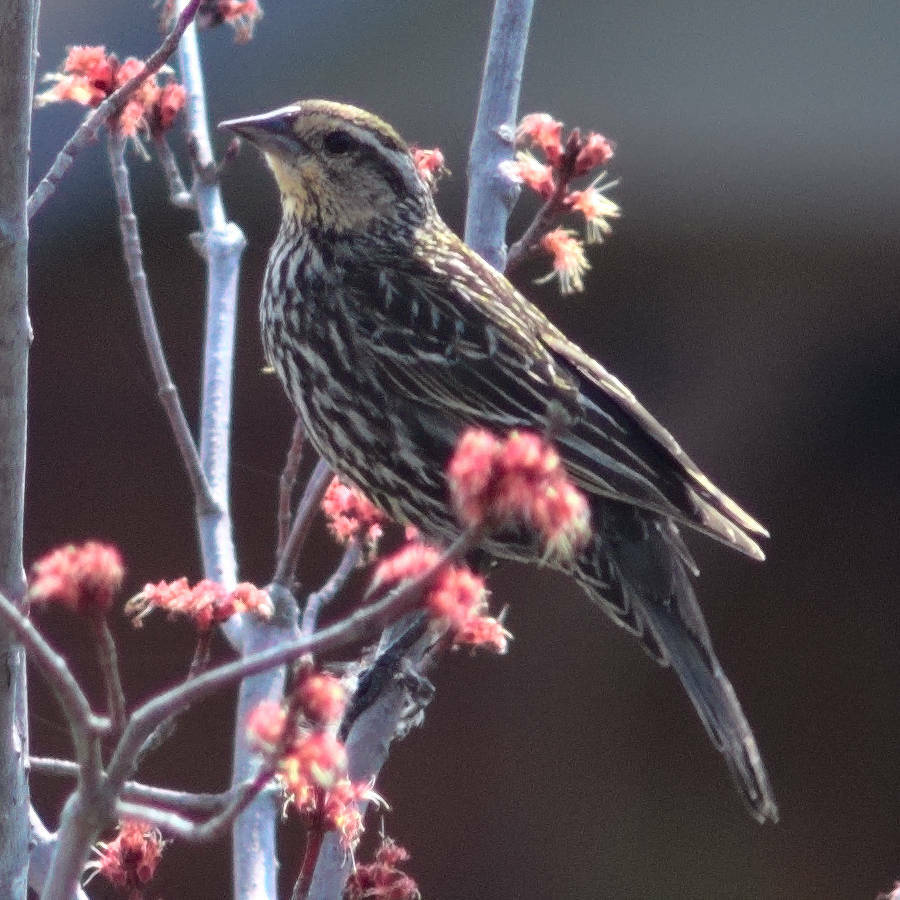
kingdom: Animalia
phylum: Chordata
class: Aves
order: Passeriformes
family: Icteridae
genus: Agelaius
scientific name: Agelaius phoeniceus
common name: Red-winged blackbird
